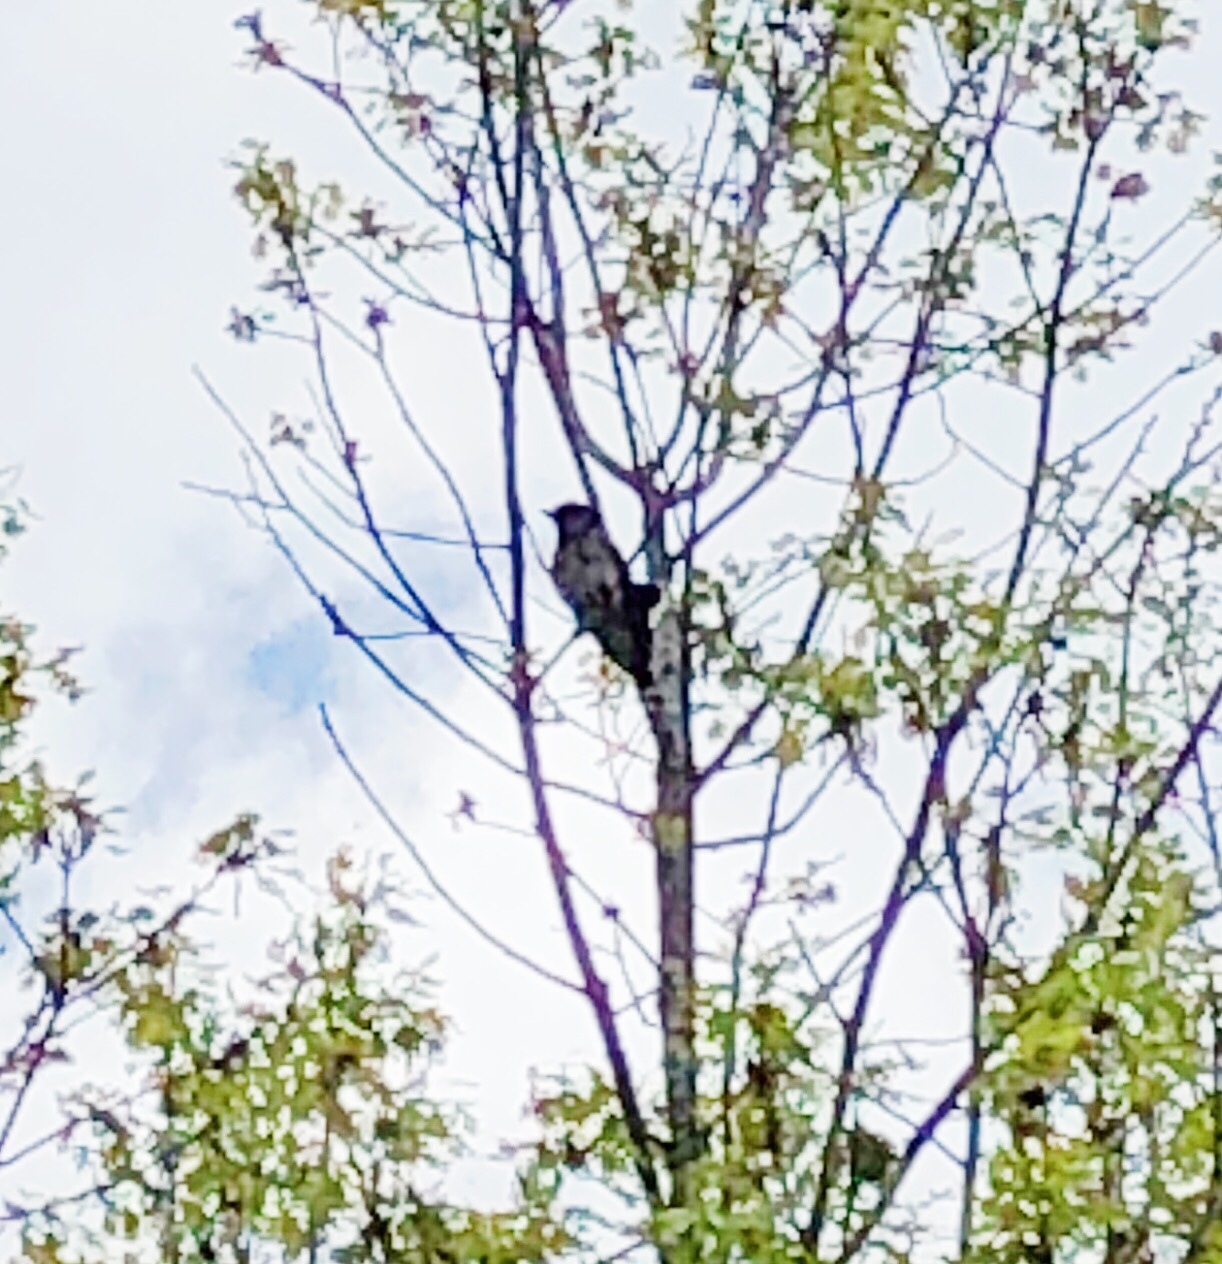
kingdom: Animalia
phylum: Chordata
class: Aves
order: Passeriformes
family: Corvidae
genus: Cyanocitta
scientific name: Cyanocitta cristata
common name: Blue jay
